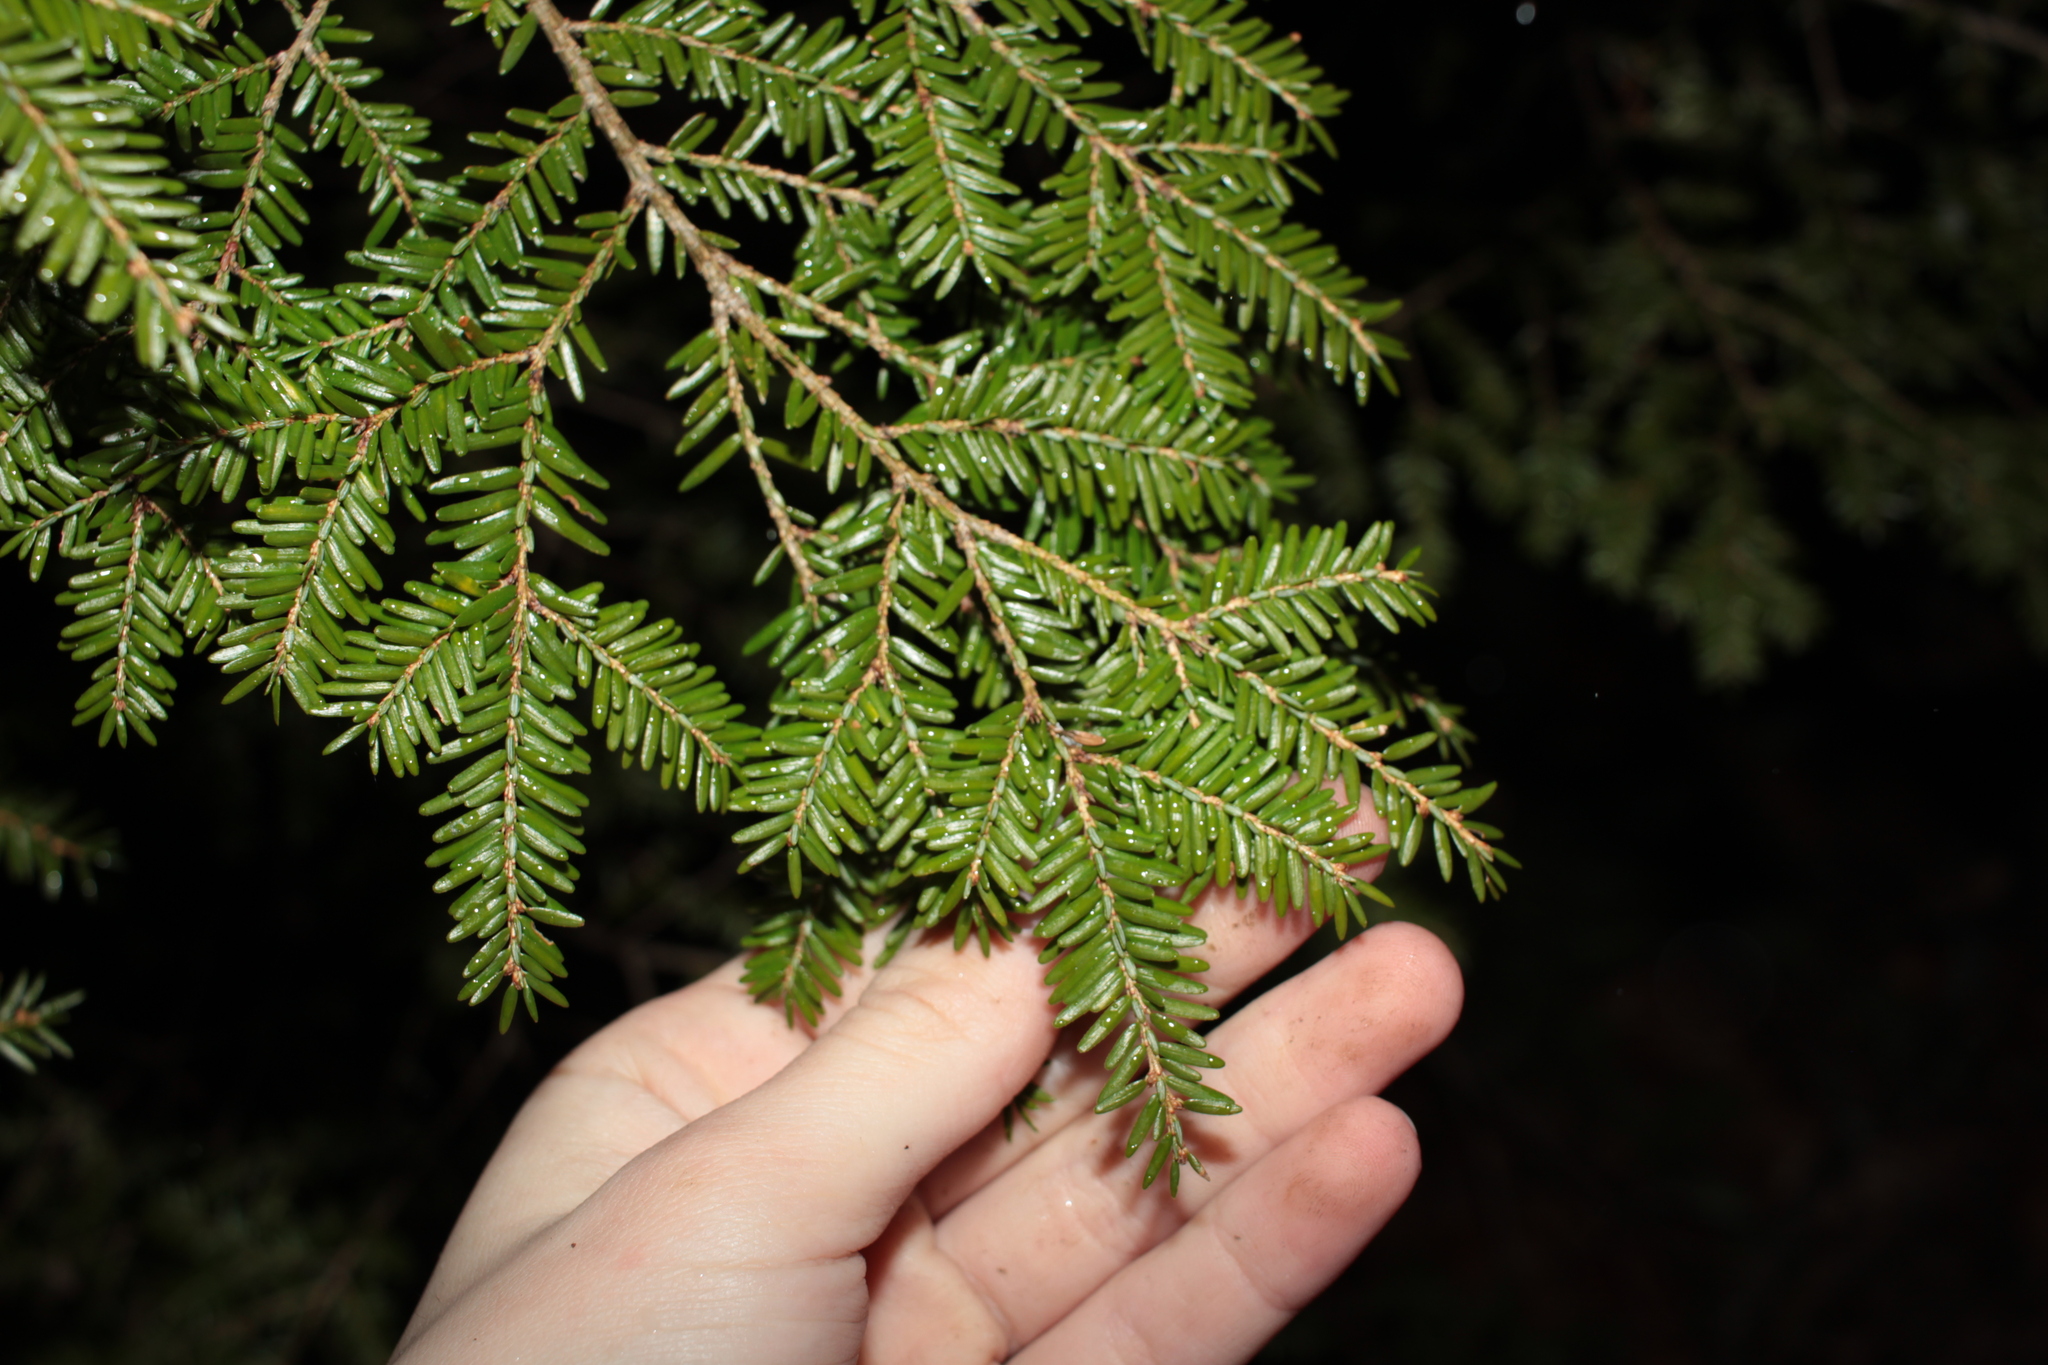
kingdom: Plantae
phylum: Tracheophyta
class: Pinopsida
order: Pinales
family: Pinaceae
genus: Tsuga
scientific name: Tsuga canadensis
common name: Eastern hemlock
